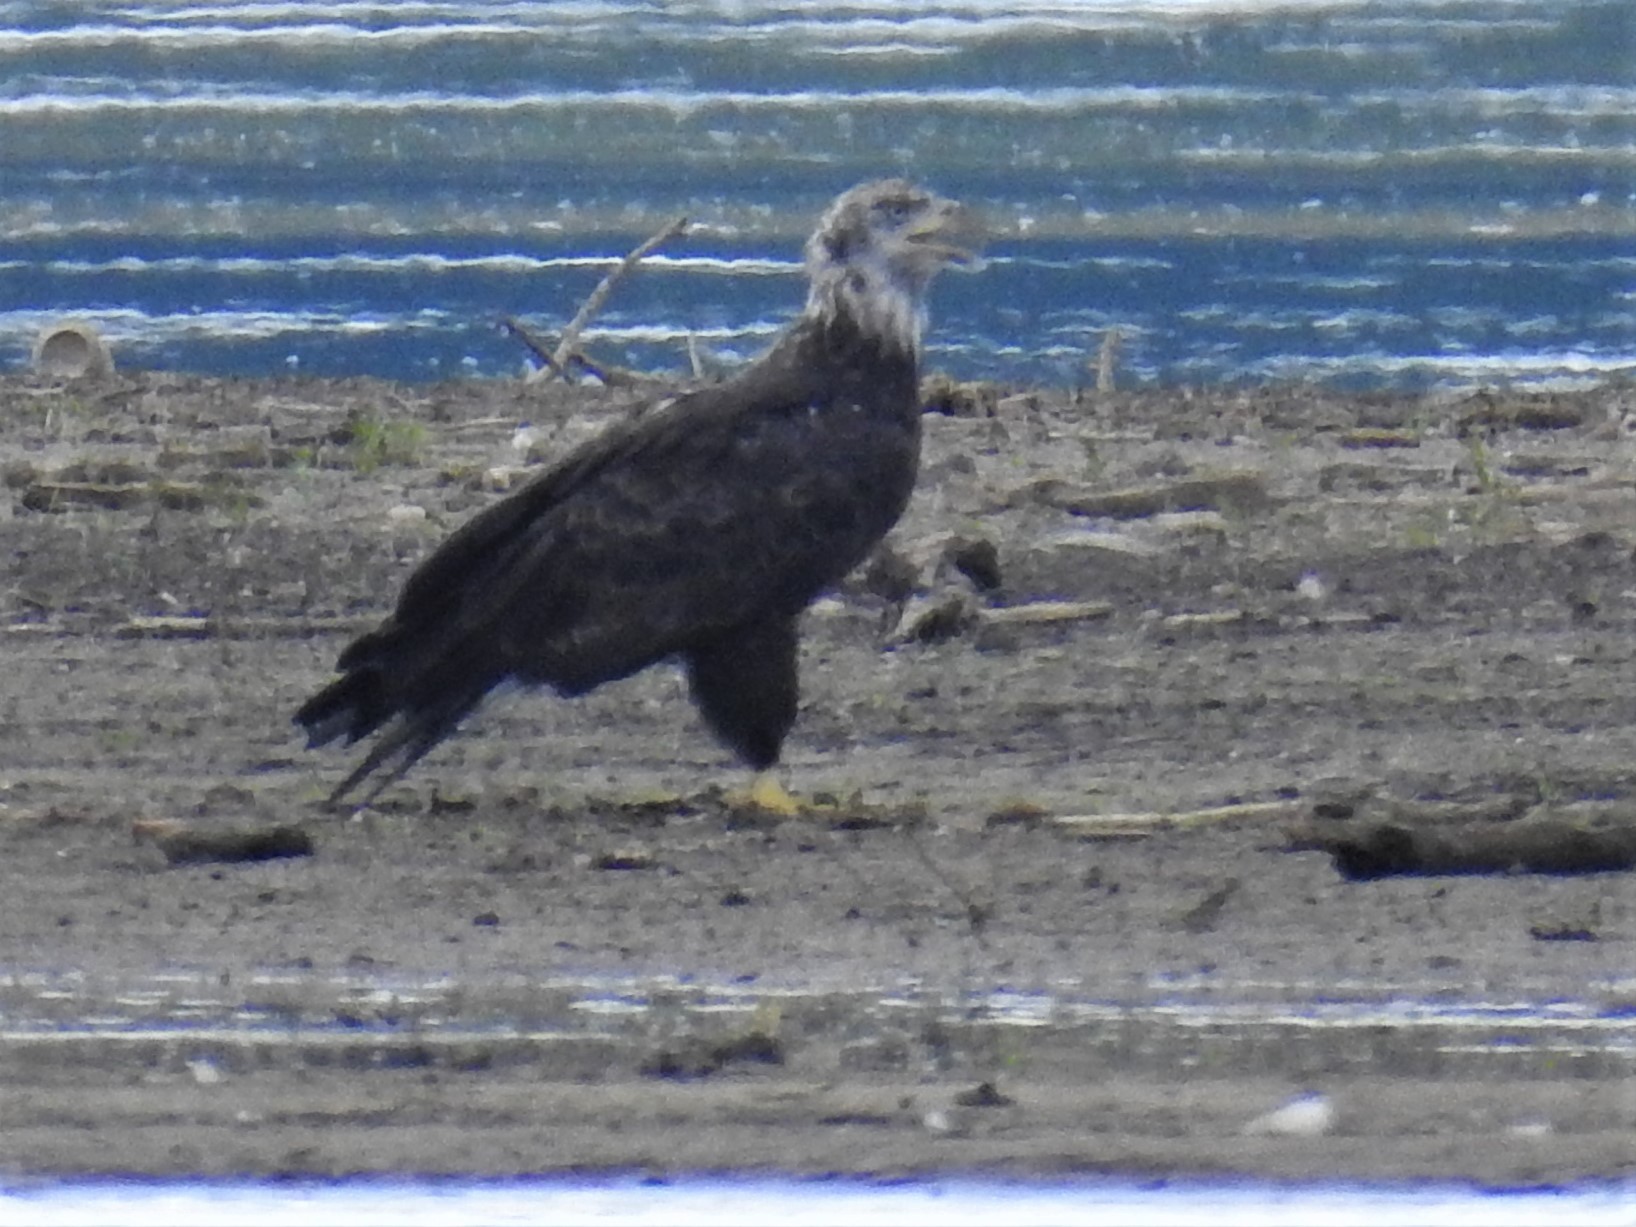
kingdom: Animalia
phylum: Chordata
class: Aves
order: Accipitriformes
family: Accipitridae
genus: Haliaeetus
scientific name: Haliaeetus leucocephalus
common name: Bald eagle
